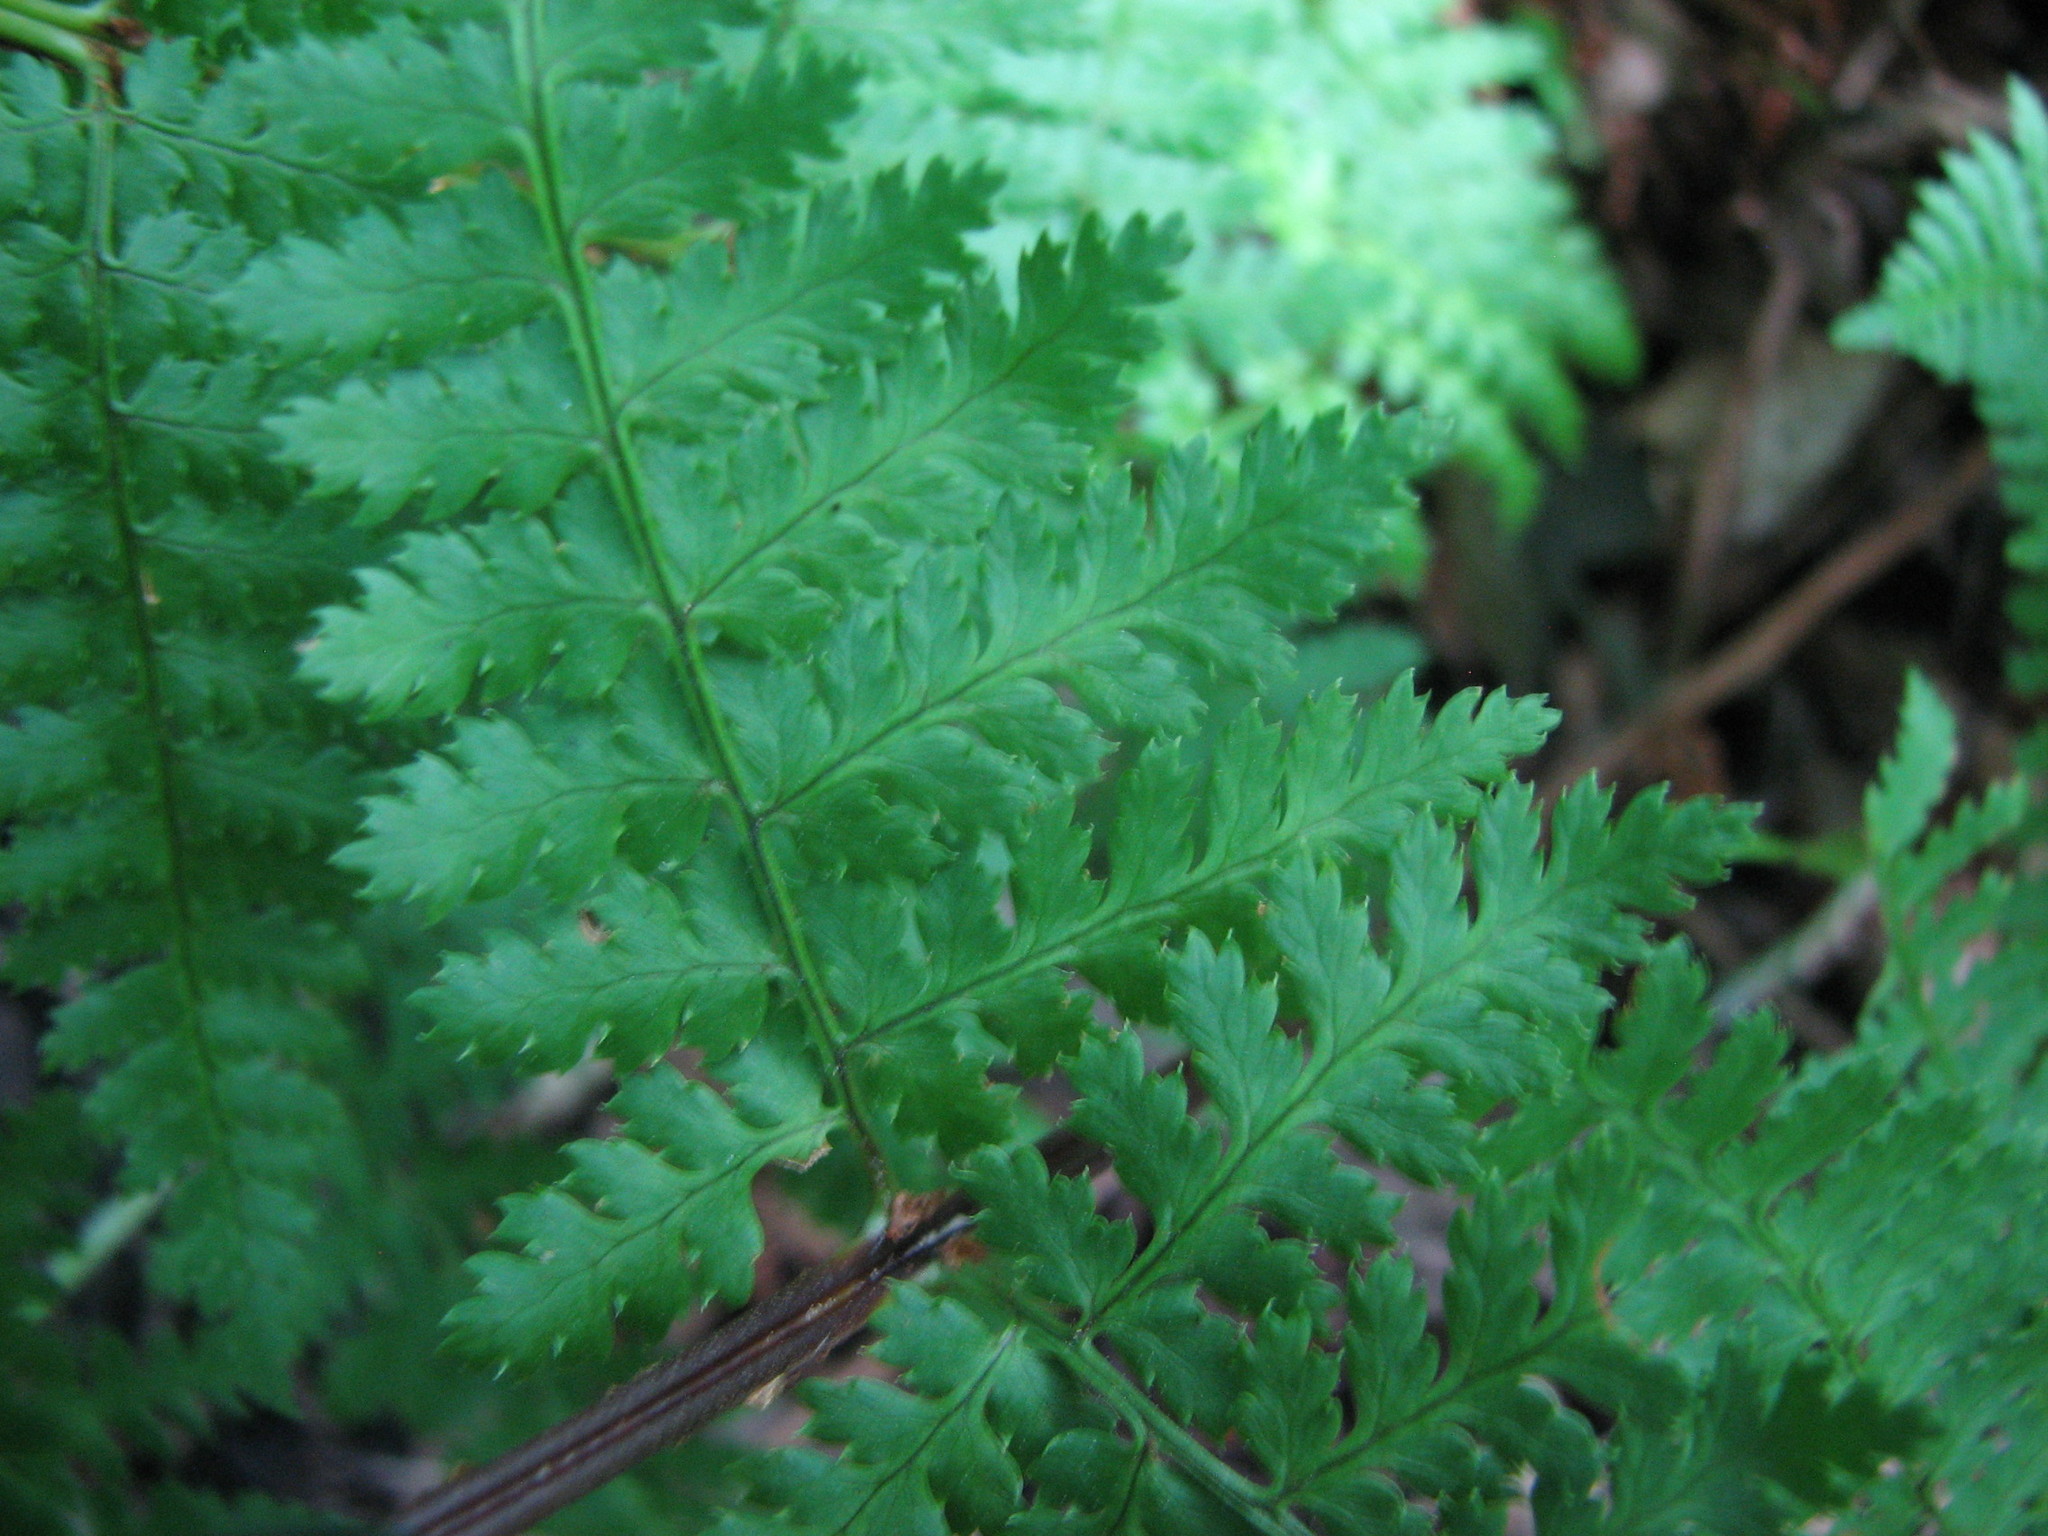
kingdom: Plantae
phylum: Tracheophyta
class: Polypodiopsida
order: Polypodiales
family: Dryopteridaceae
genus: Dryopteris
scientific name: Dryopteris intermedia
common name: Evergreen wood fern
